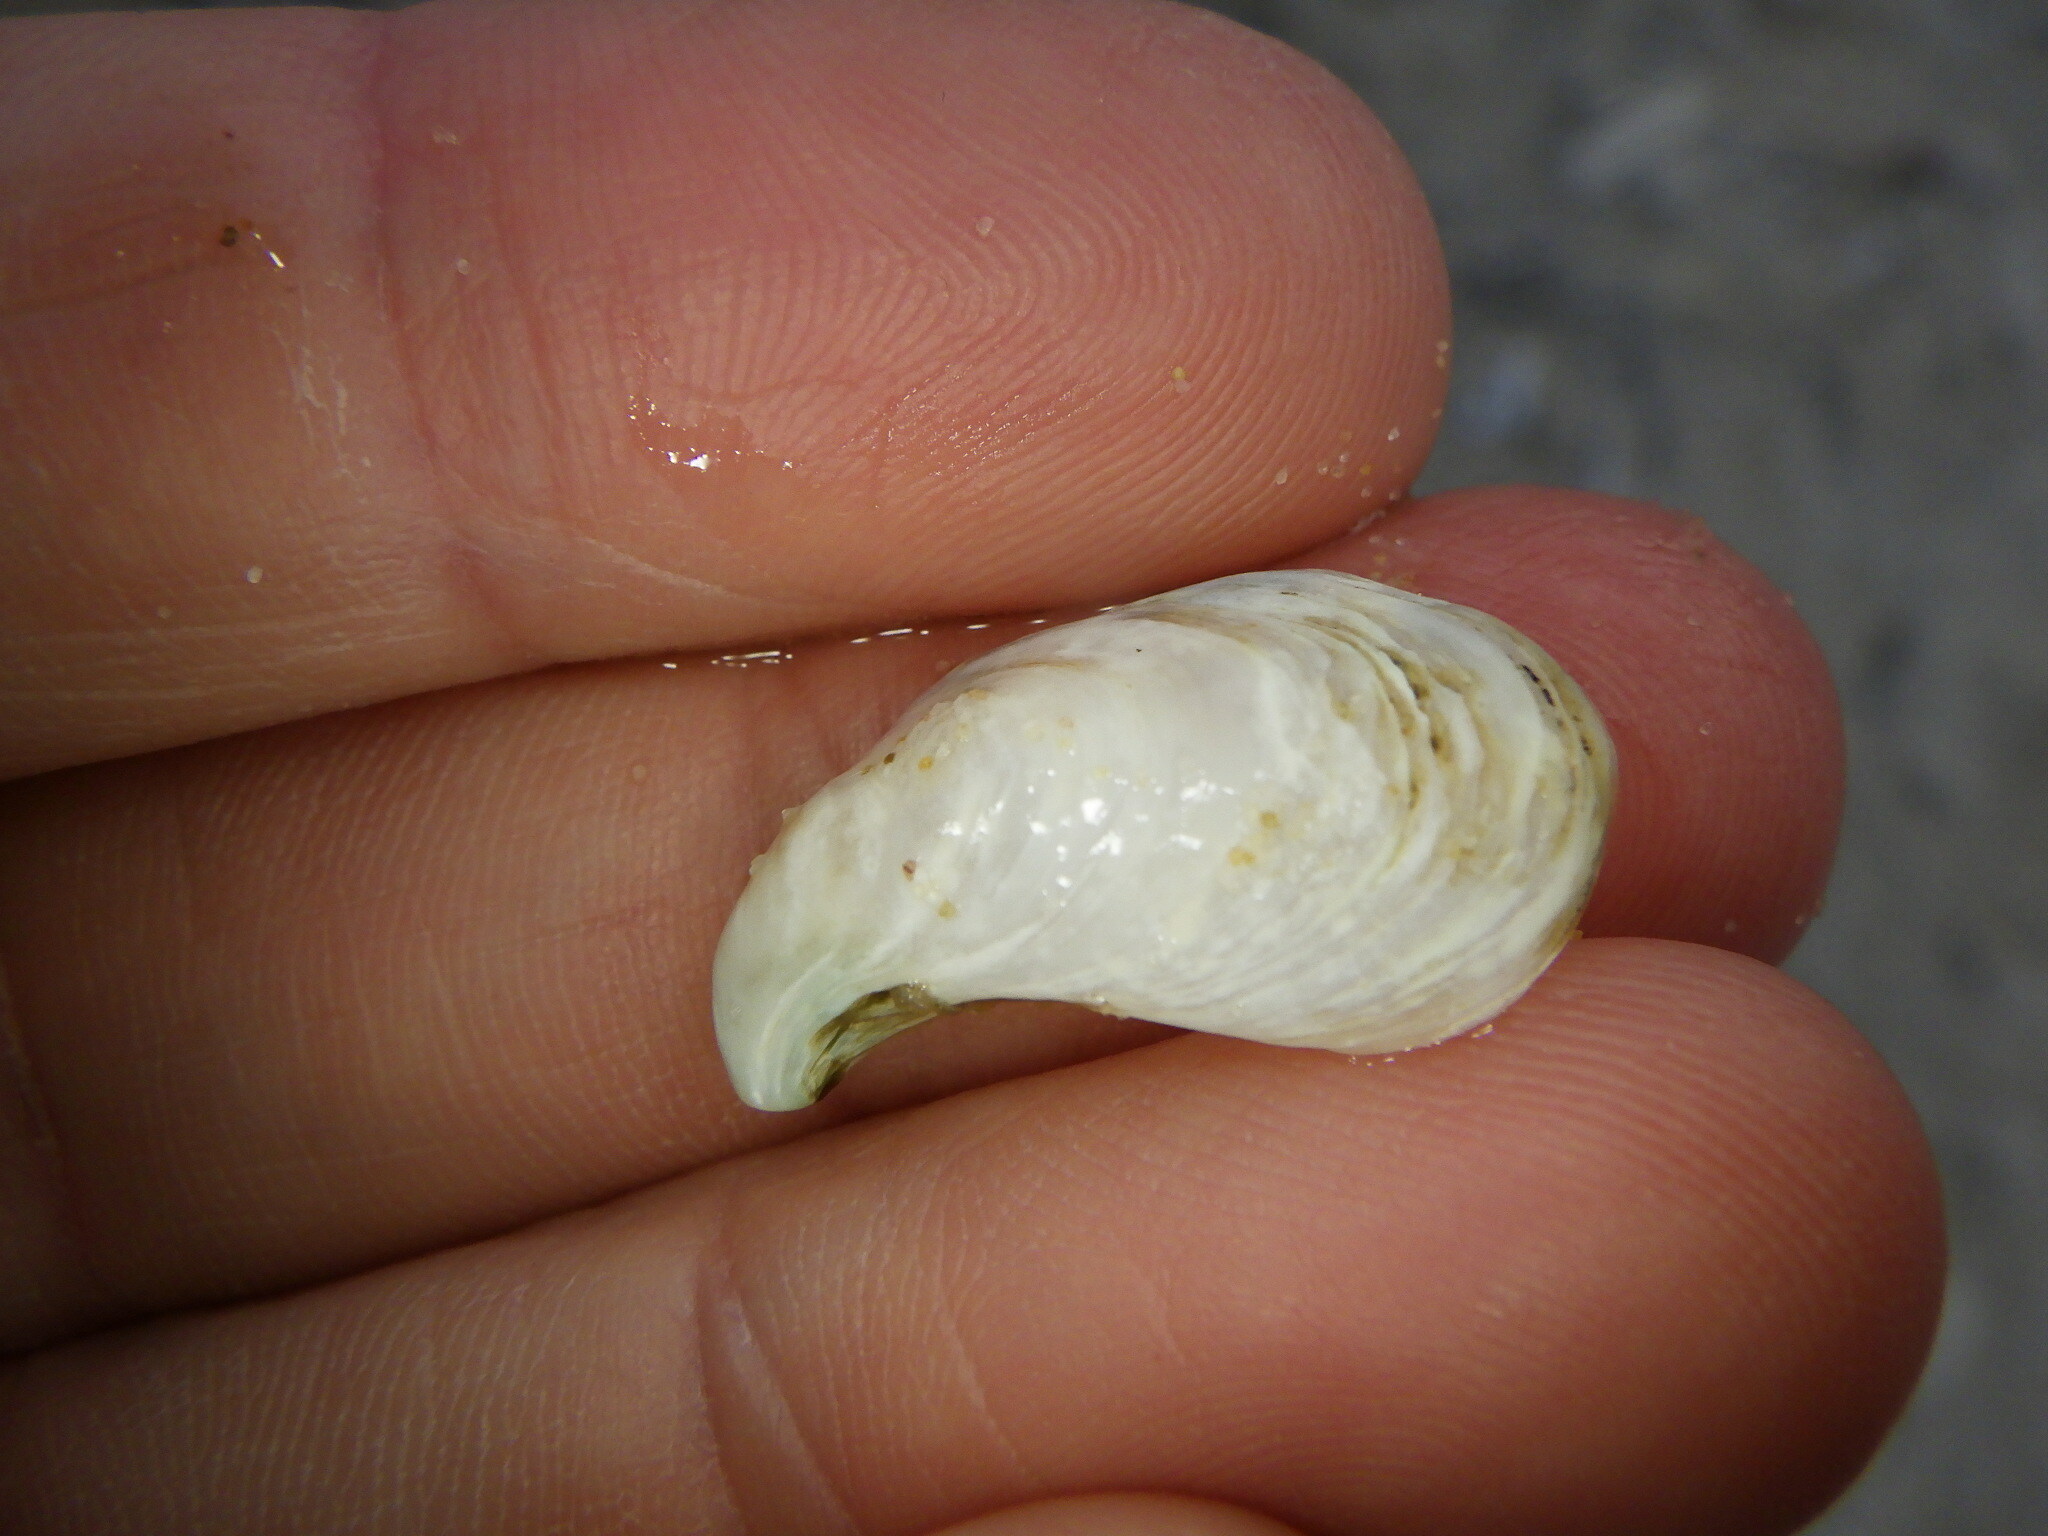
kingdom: Animalia
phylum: Mollusca
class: Bivalvia
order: Myida
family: Dreissenidae
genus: Dreissena
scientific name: Dreissena bugensis
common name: Quagga mussel
